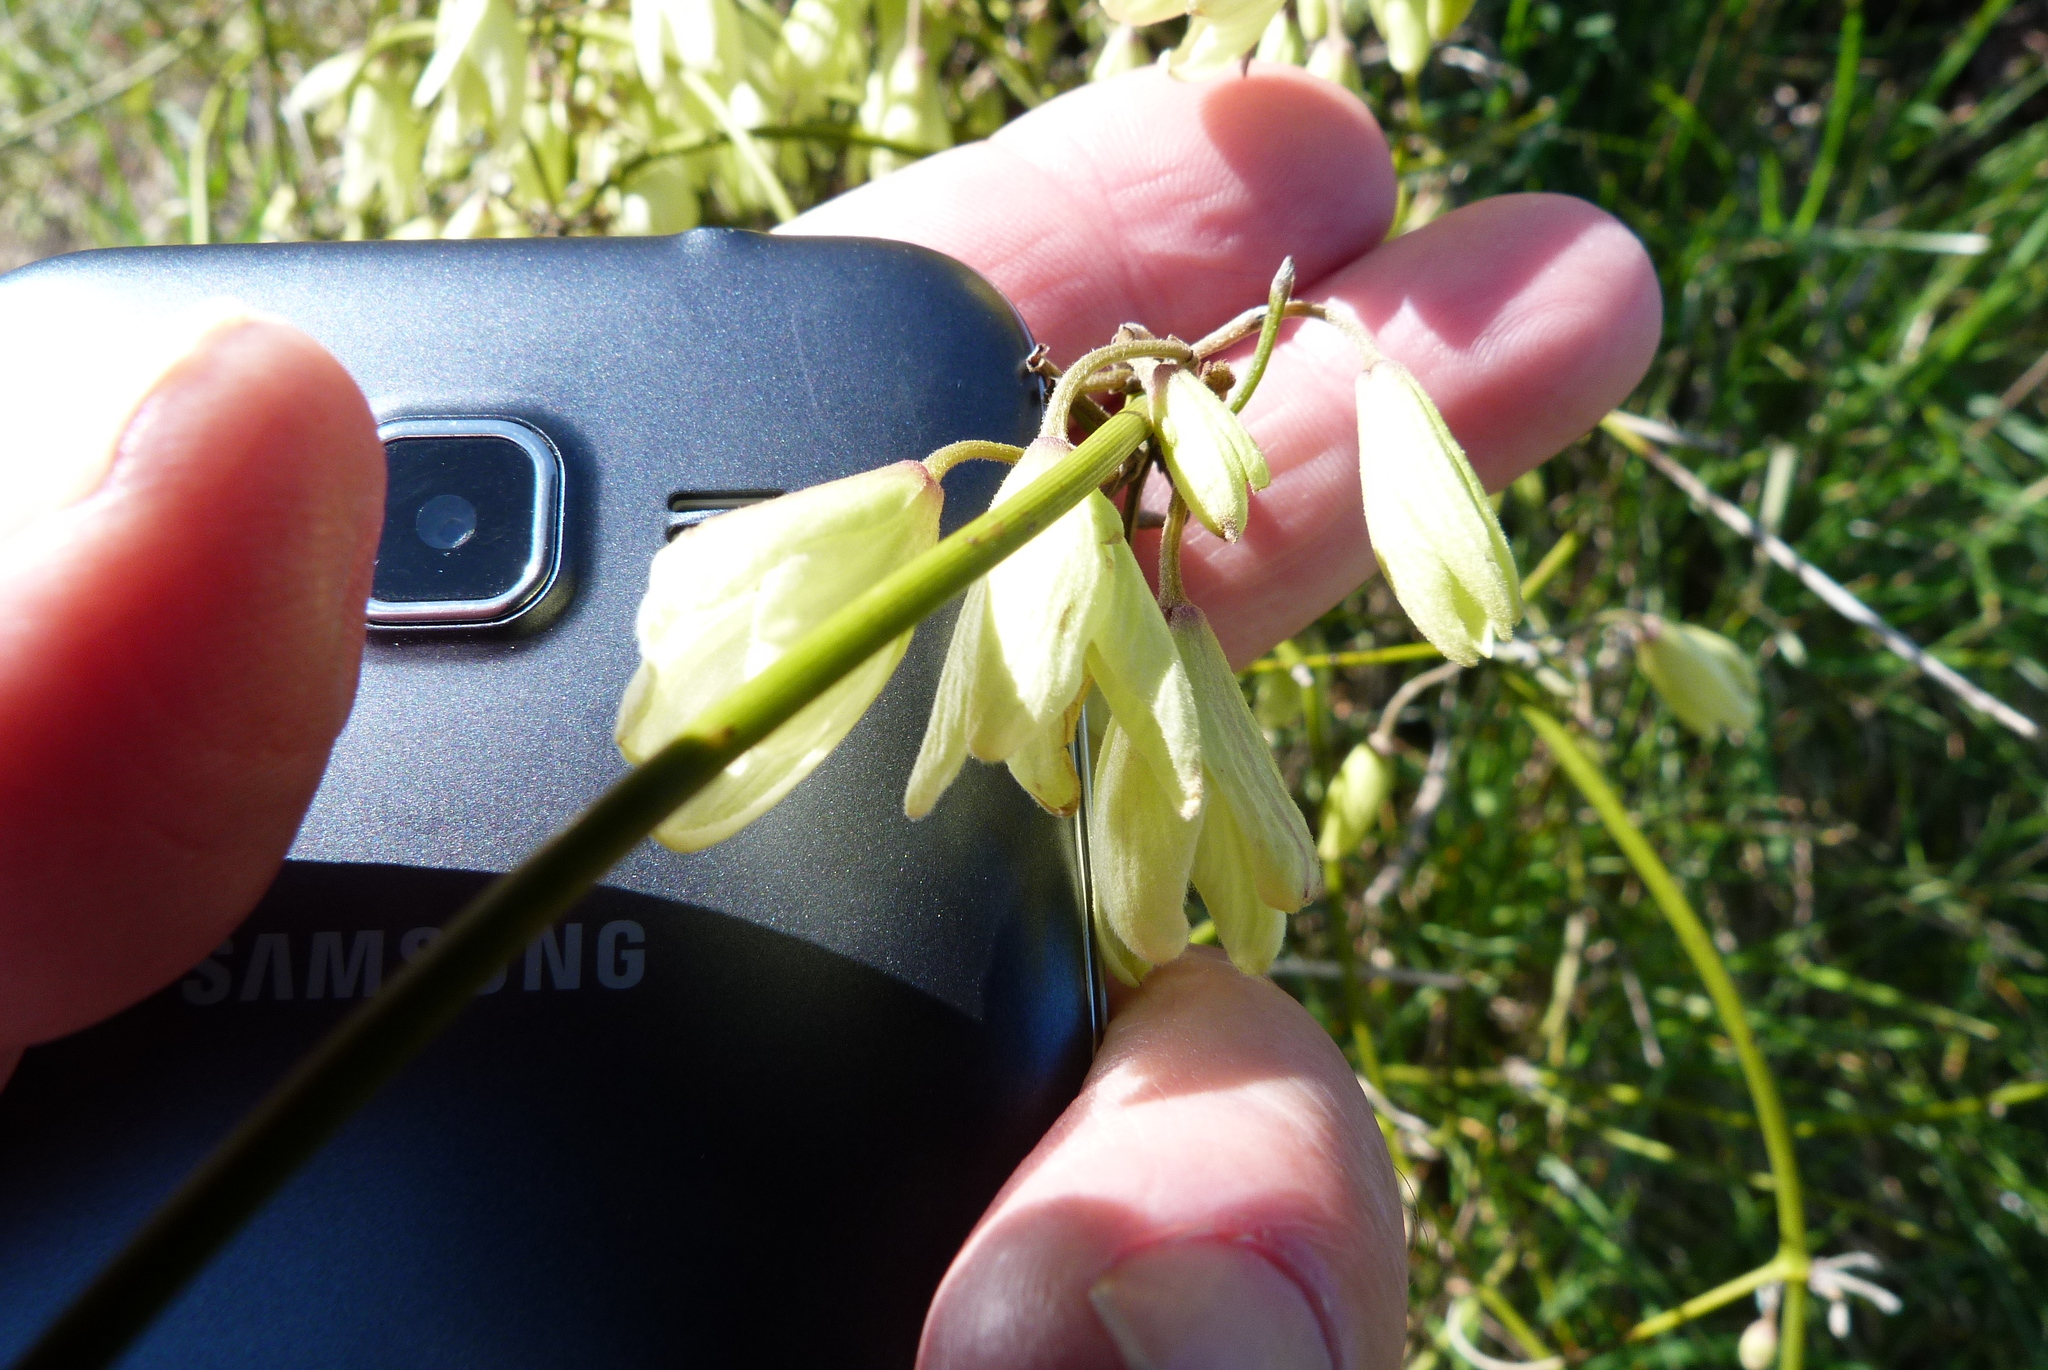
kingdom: Plantae
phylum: Tracheophyta
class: Magnoliopsida
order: Ranunculales
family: Ranunculaceae
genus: Clematis
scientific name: Clematis afoliata
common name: Rush-stem clematis
